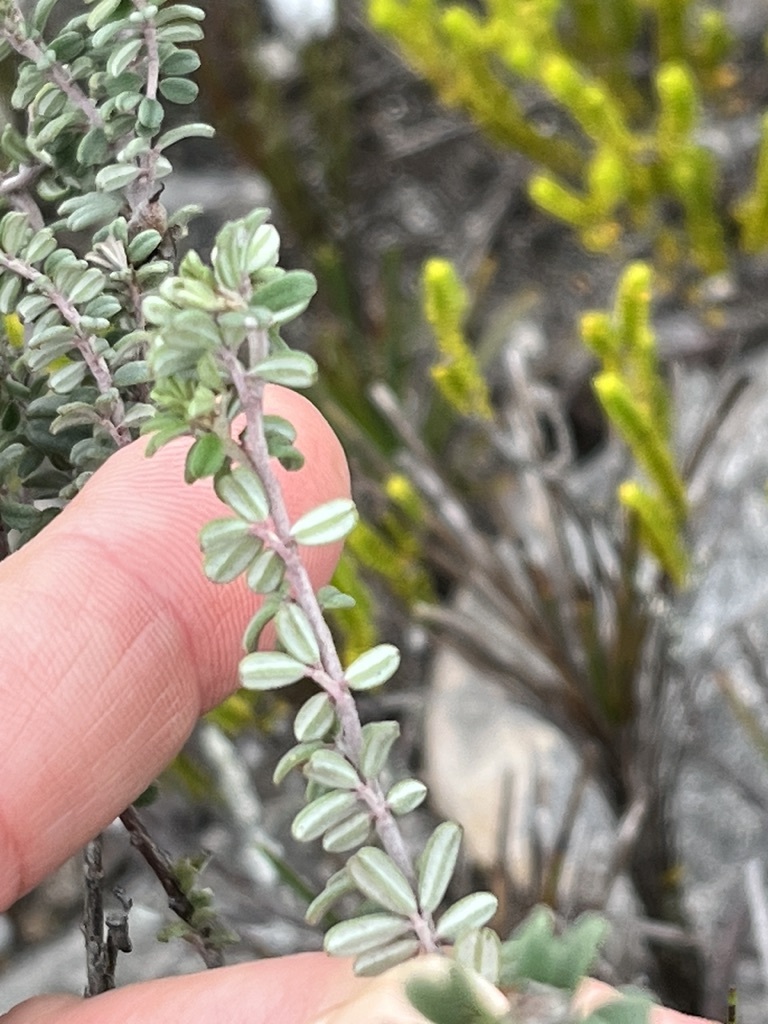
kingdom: Plantae
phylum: Tracheophyta
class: Magnoliopsida
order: Fabales
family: Fabaceae
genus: Indigofera
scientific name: Indigofera
